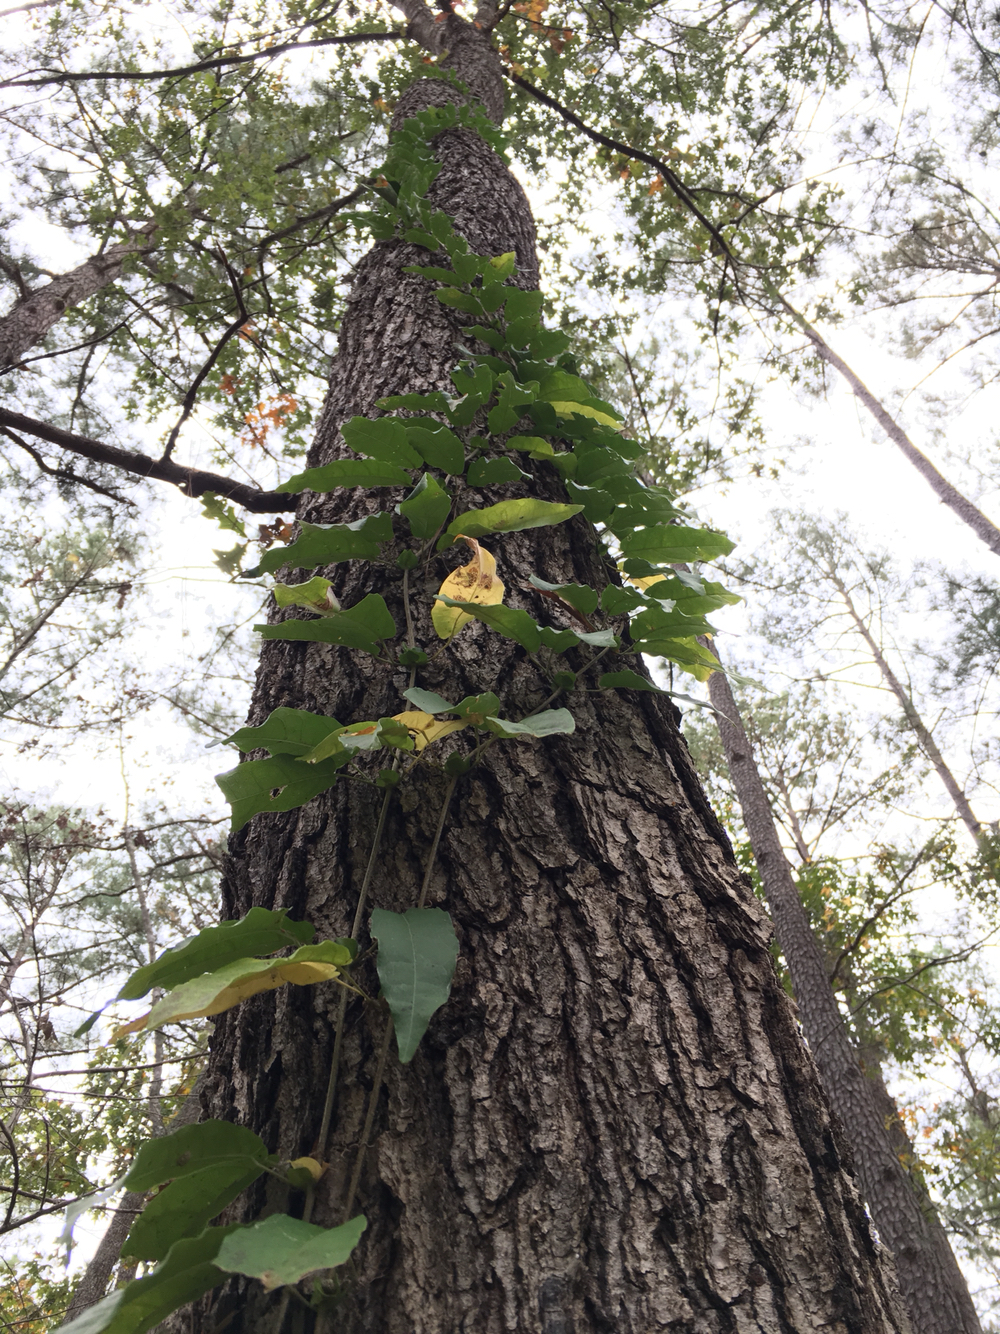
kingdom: Plantae
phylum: Tracheophyta
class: Magnoliopsida
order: Lamiales
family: Bignoniaceae
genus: Bignonia
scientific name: Bignonia capreolata
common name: Crossvine
